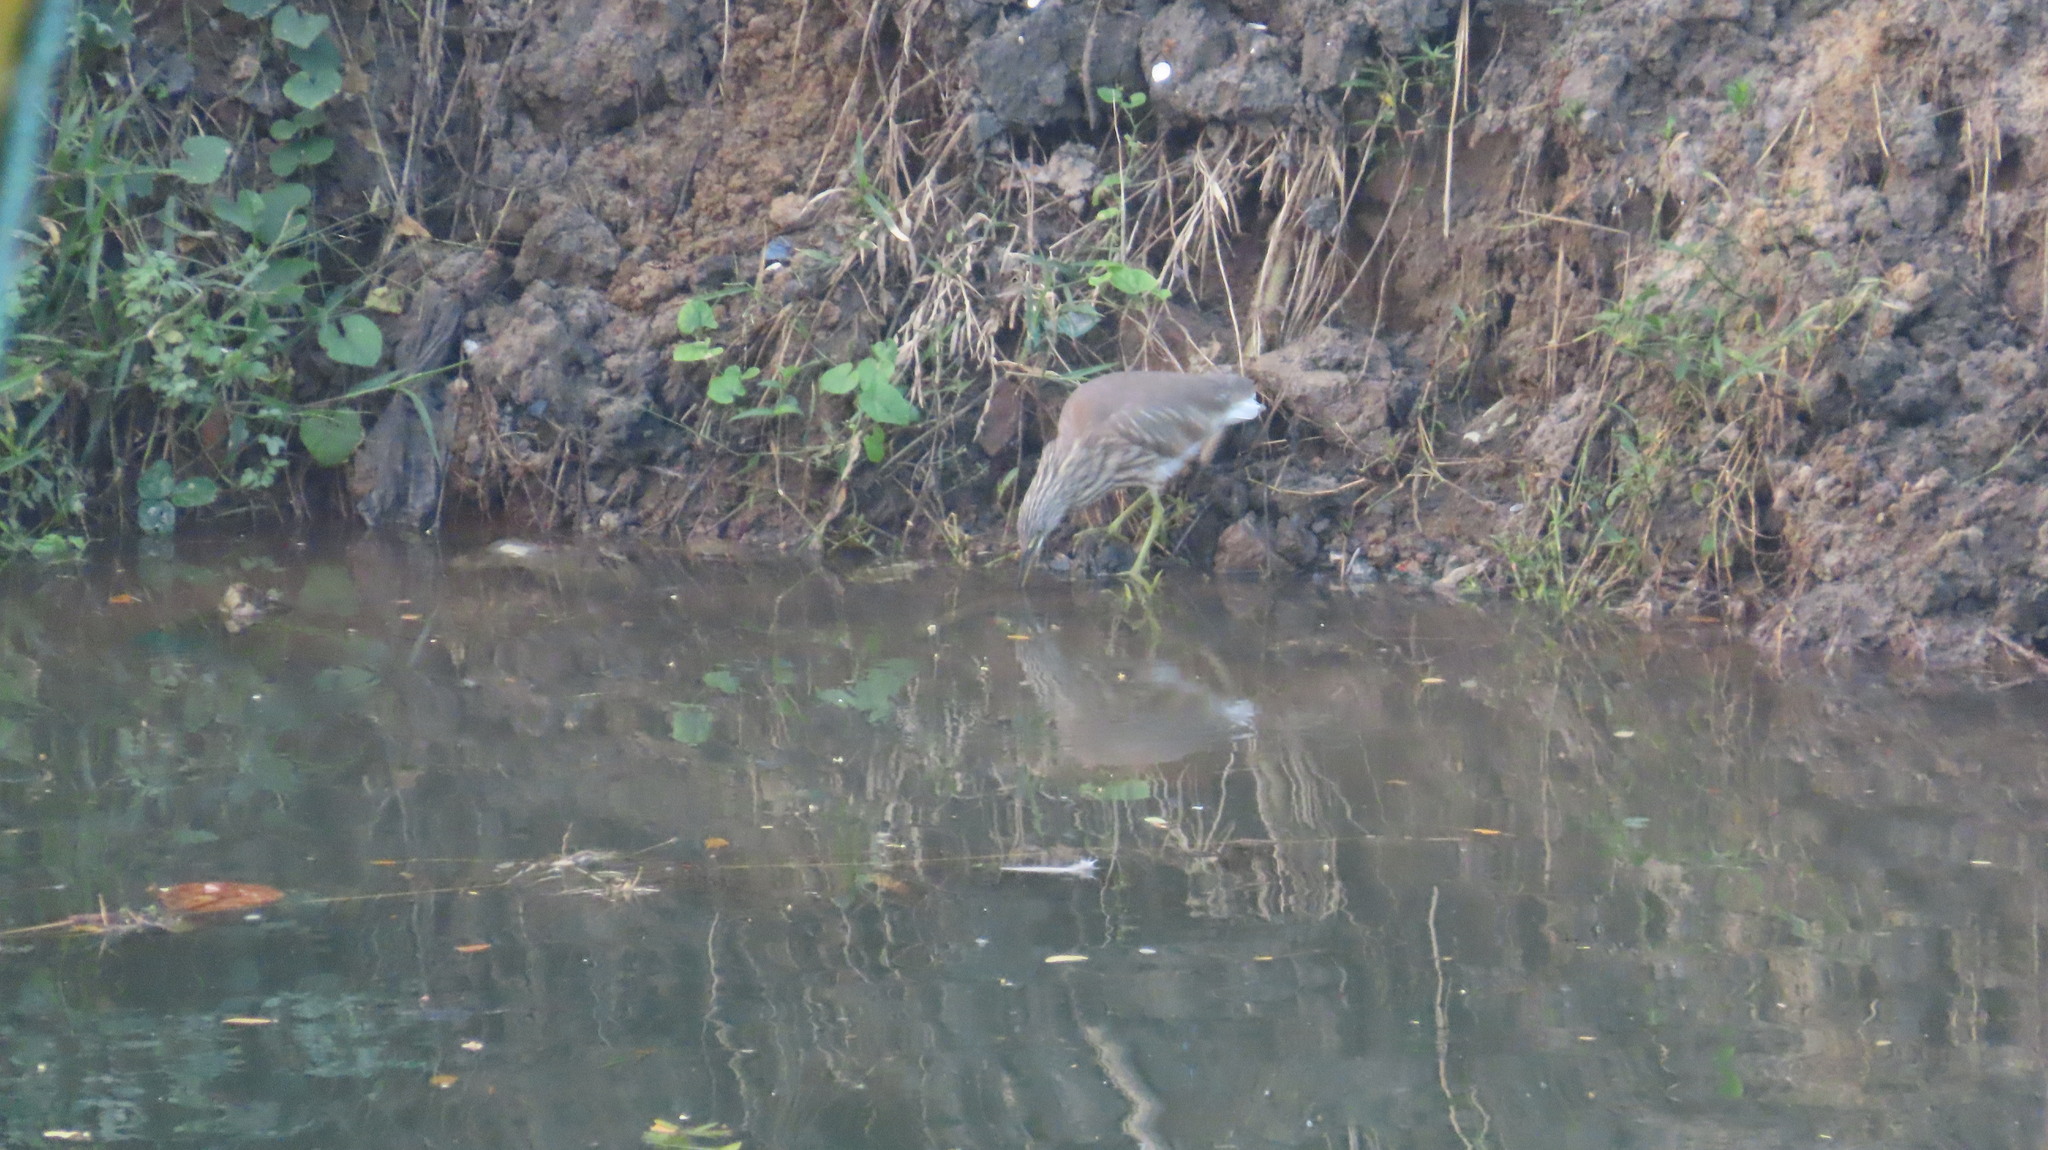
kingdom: Animalia
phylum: Chordata
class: Aves
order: Pelecaniformes
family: Ardeidae
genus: Ardeola
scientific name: Ardeola grayii
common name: Indian pond heron
